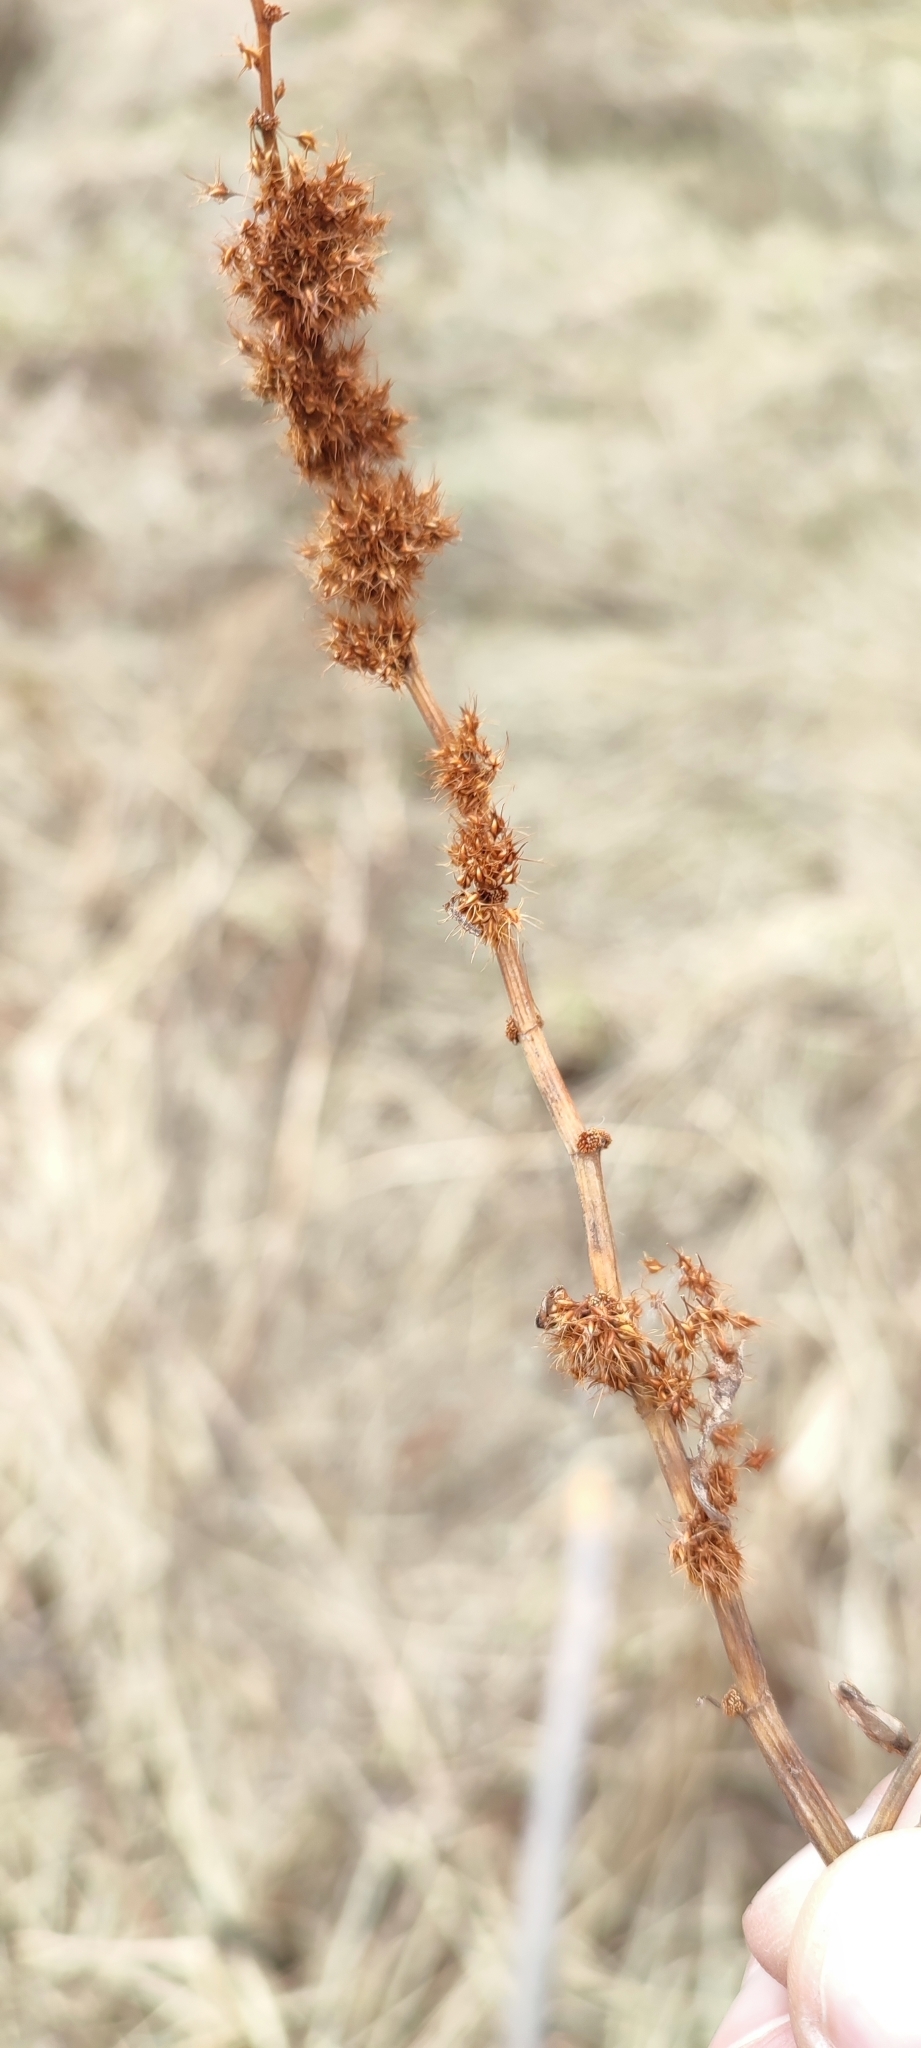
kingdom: Plantae
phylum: Tracheophyta
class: Magnoliopsida
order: Caryophyllales
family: Polygonaceae
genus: Rumex
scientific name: Rumex maritimus
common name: Golden dock
